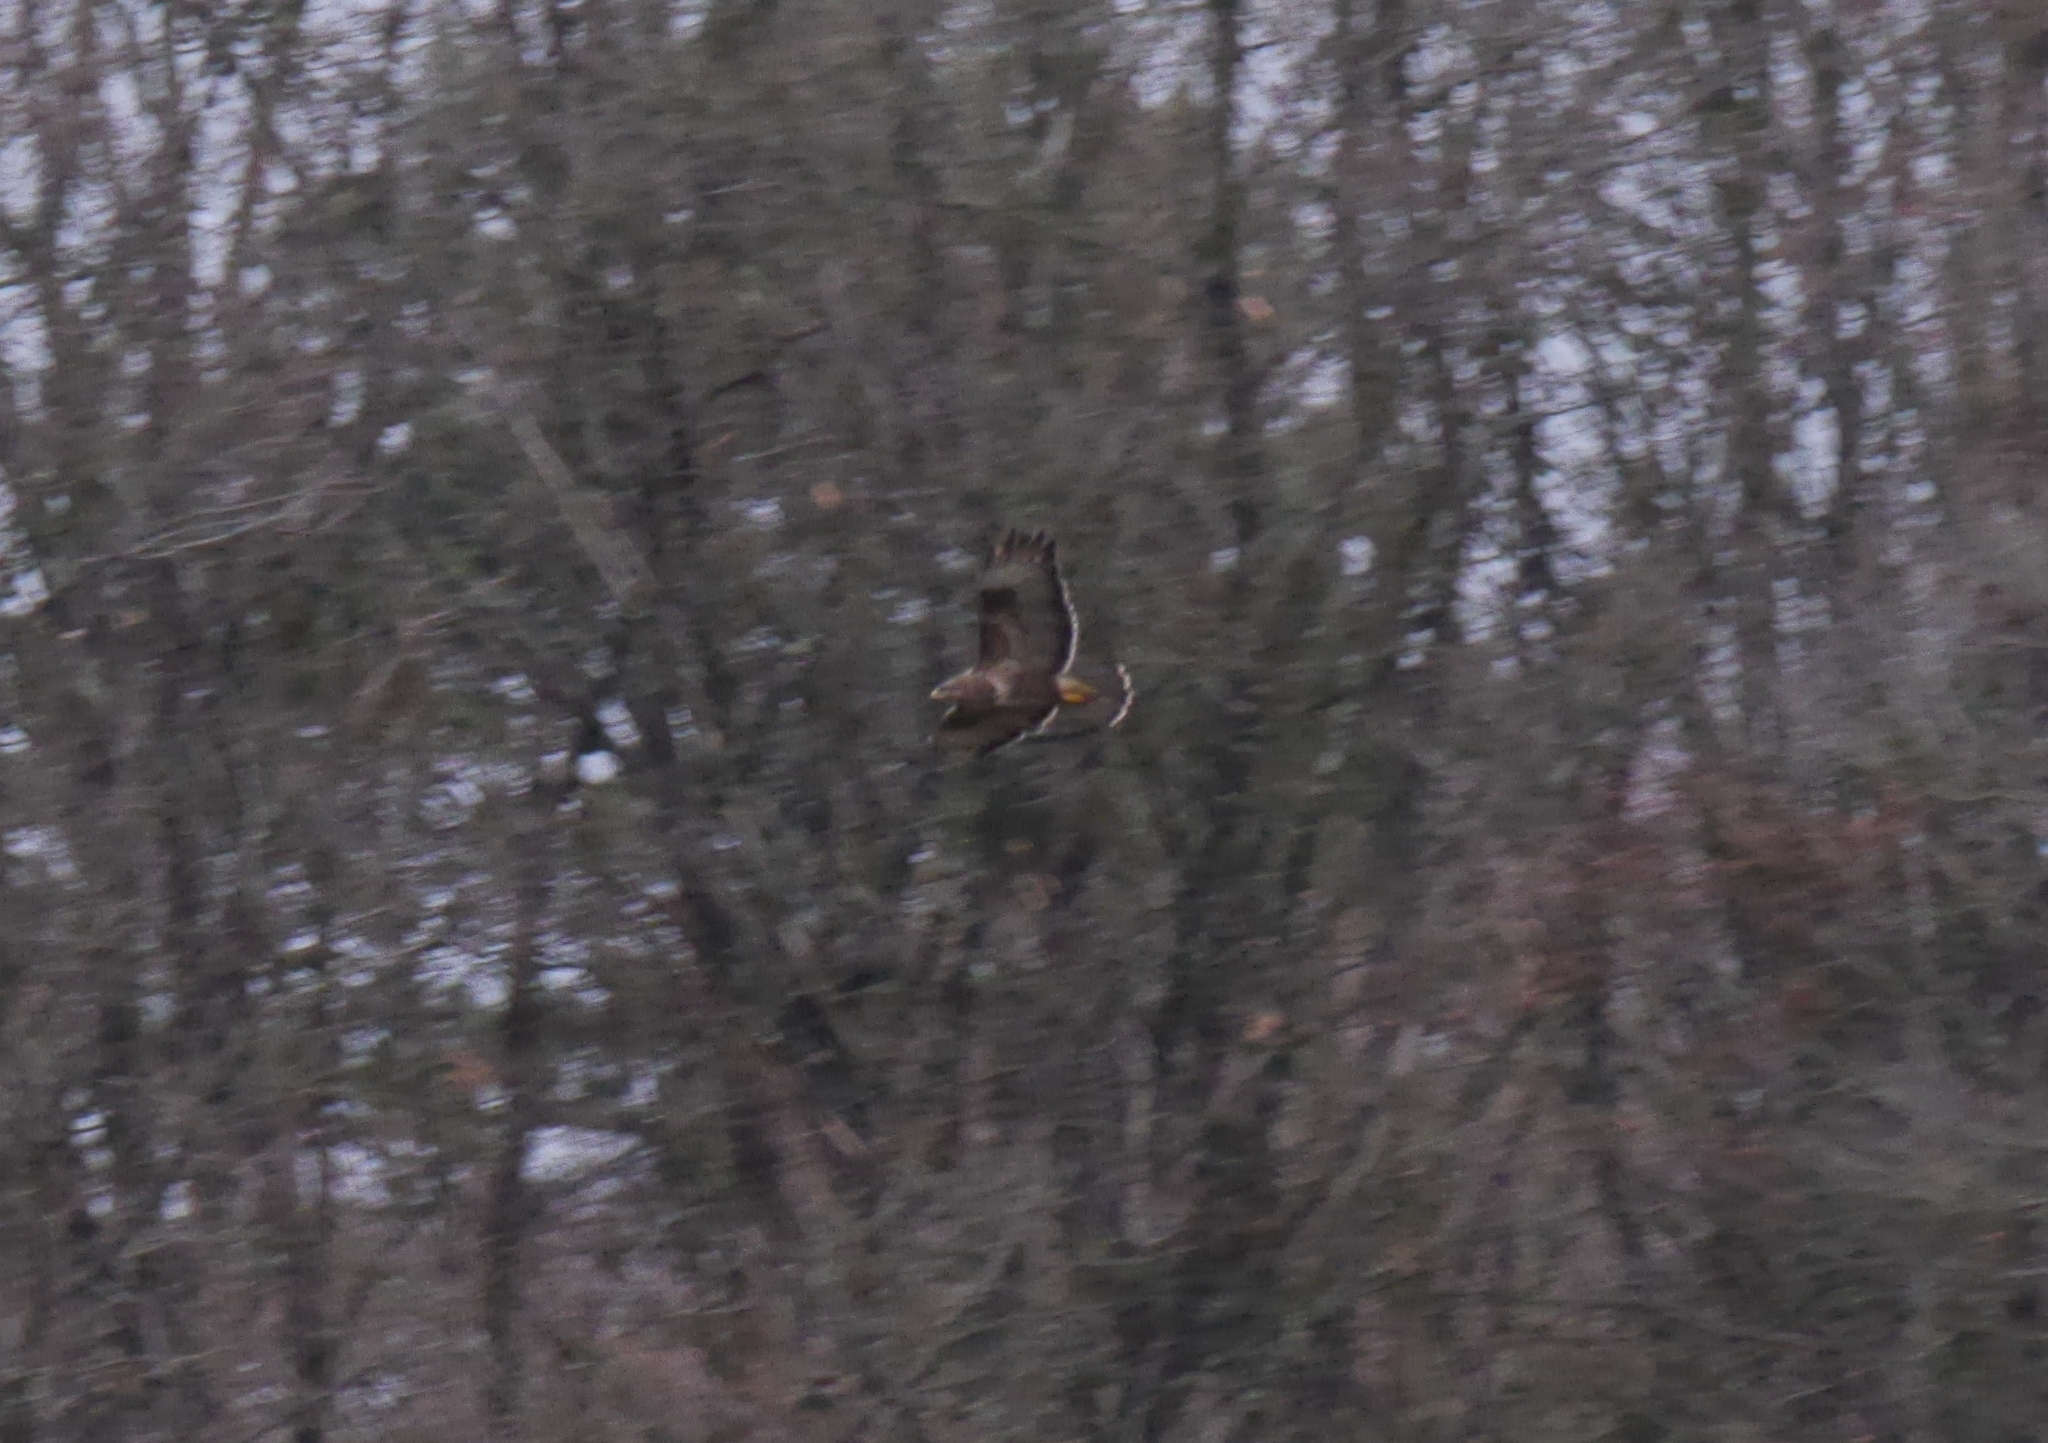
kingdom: Animalia
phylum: Chordata
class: Aves
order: Accipitriformes
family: Accipitridae
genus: Buteo
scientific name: Buteo buteo
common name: Common buzzard
